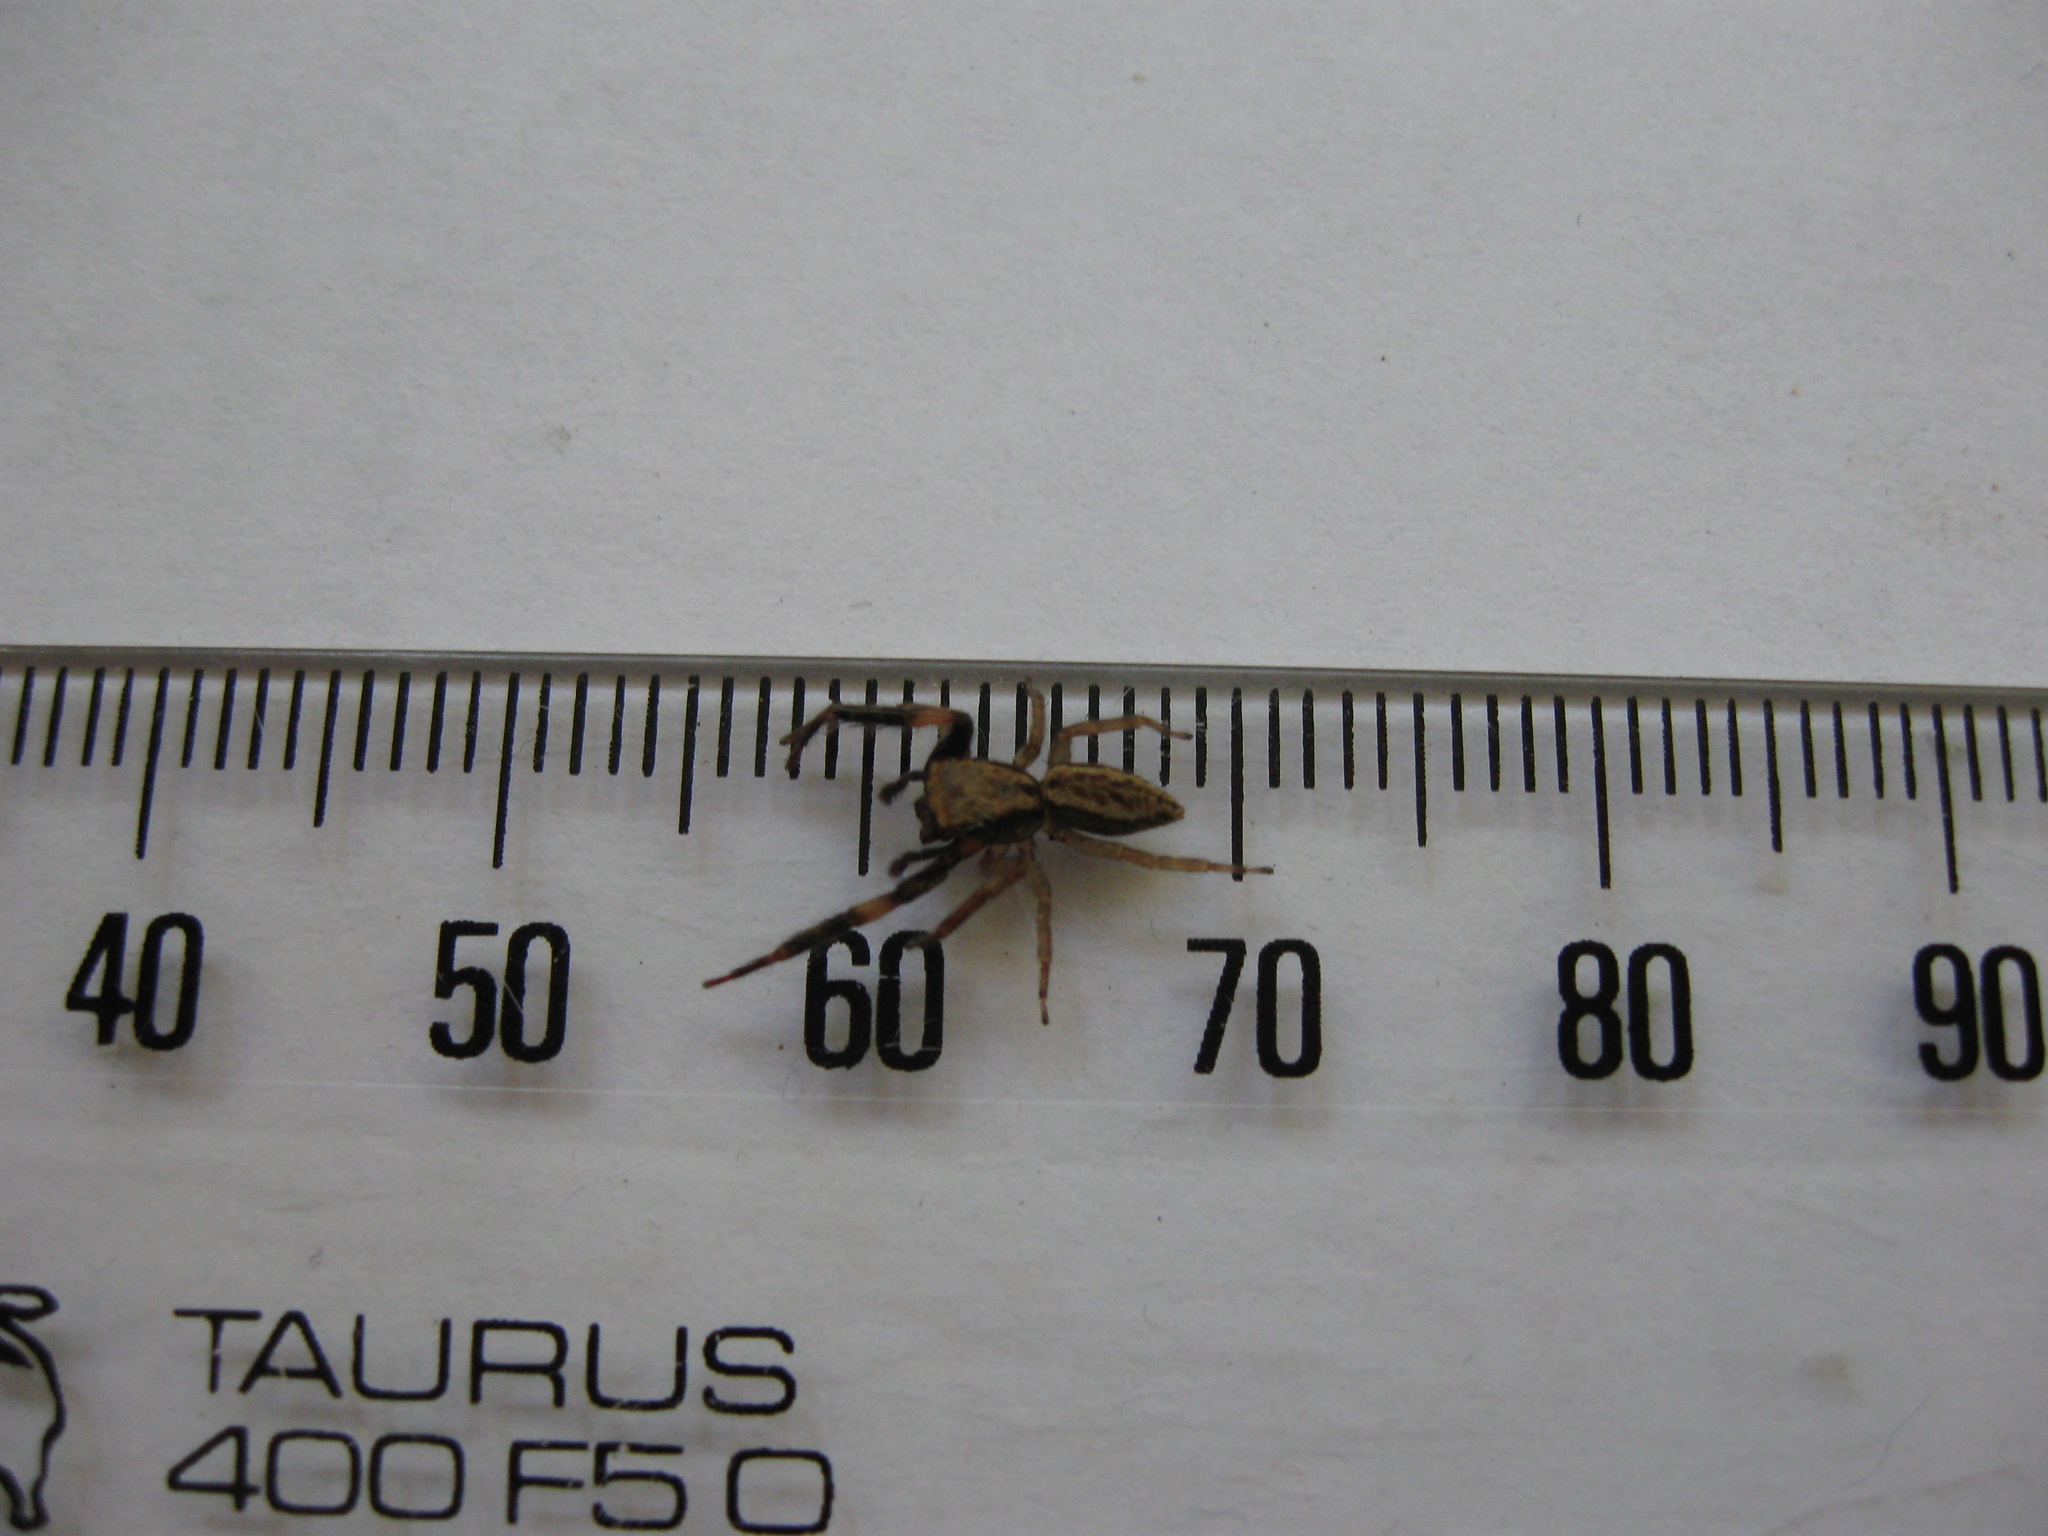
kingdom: Animalia
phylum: Arthropoda
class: Arachnida
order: Araneae
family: Salticidae
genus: Trite
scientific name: Trite auricoma
